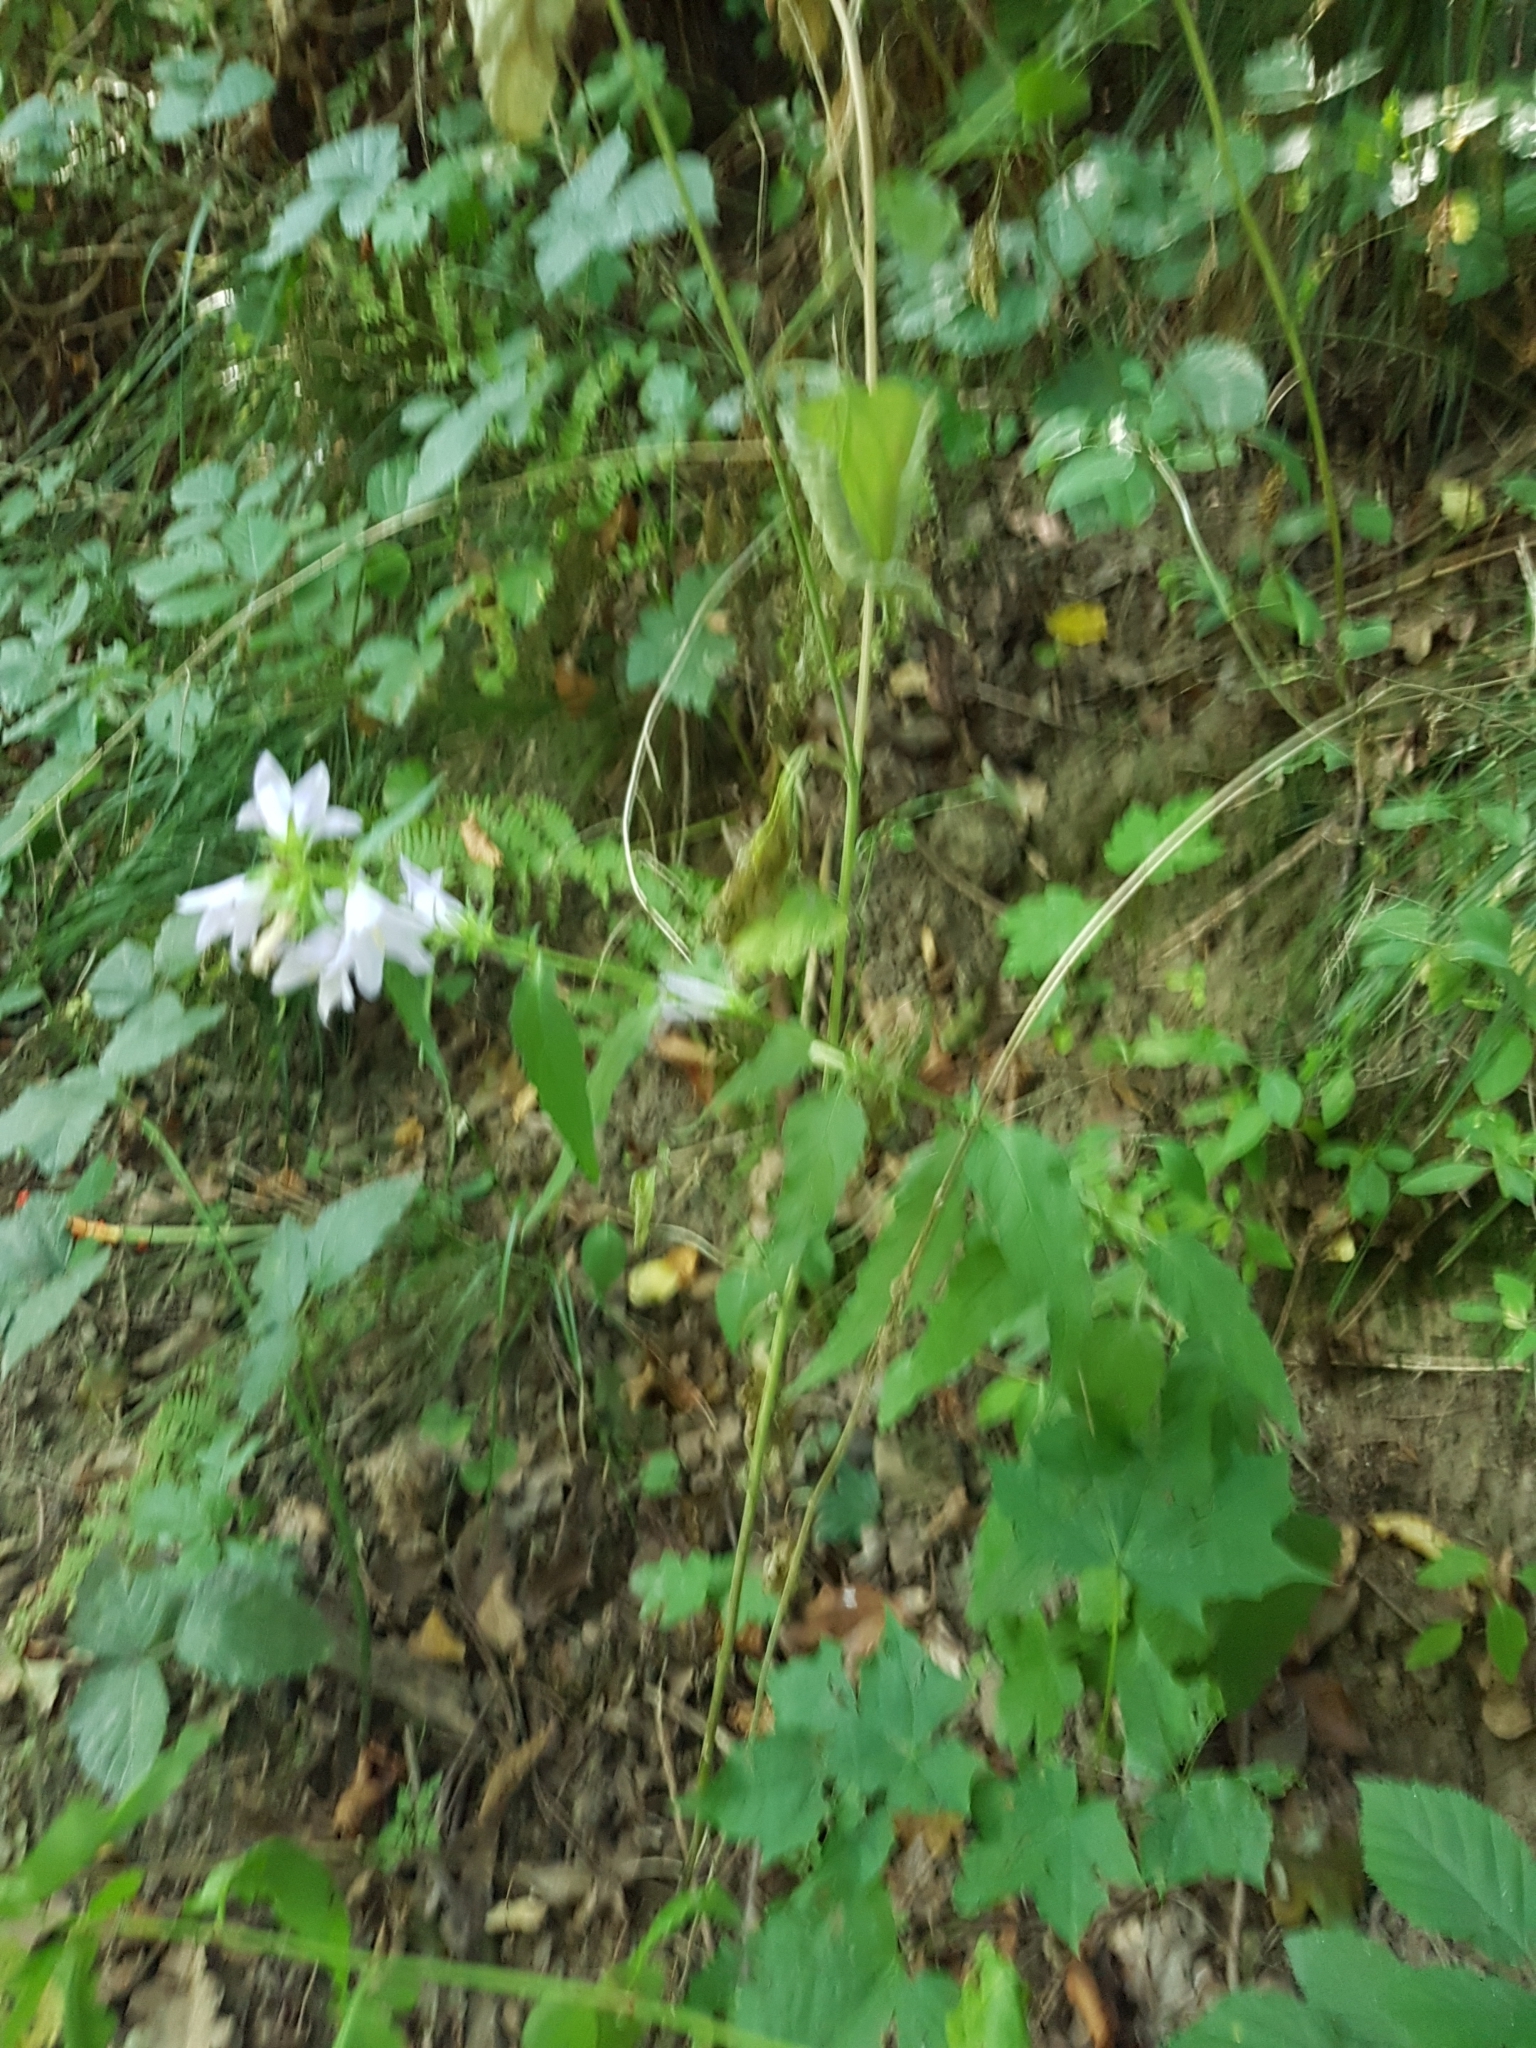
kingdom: Plantae
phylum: Tracheophyta
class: Magnoliopsida
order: Asterales
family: Campanulaceae
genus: Campanula
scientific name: Campanula trachelium
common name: Nettle-leaved bellflower
